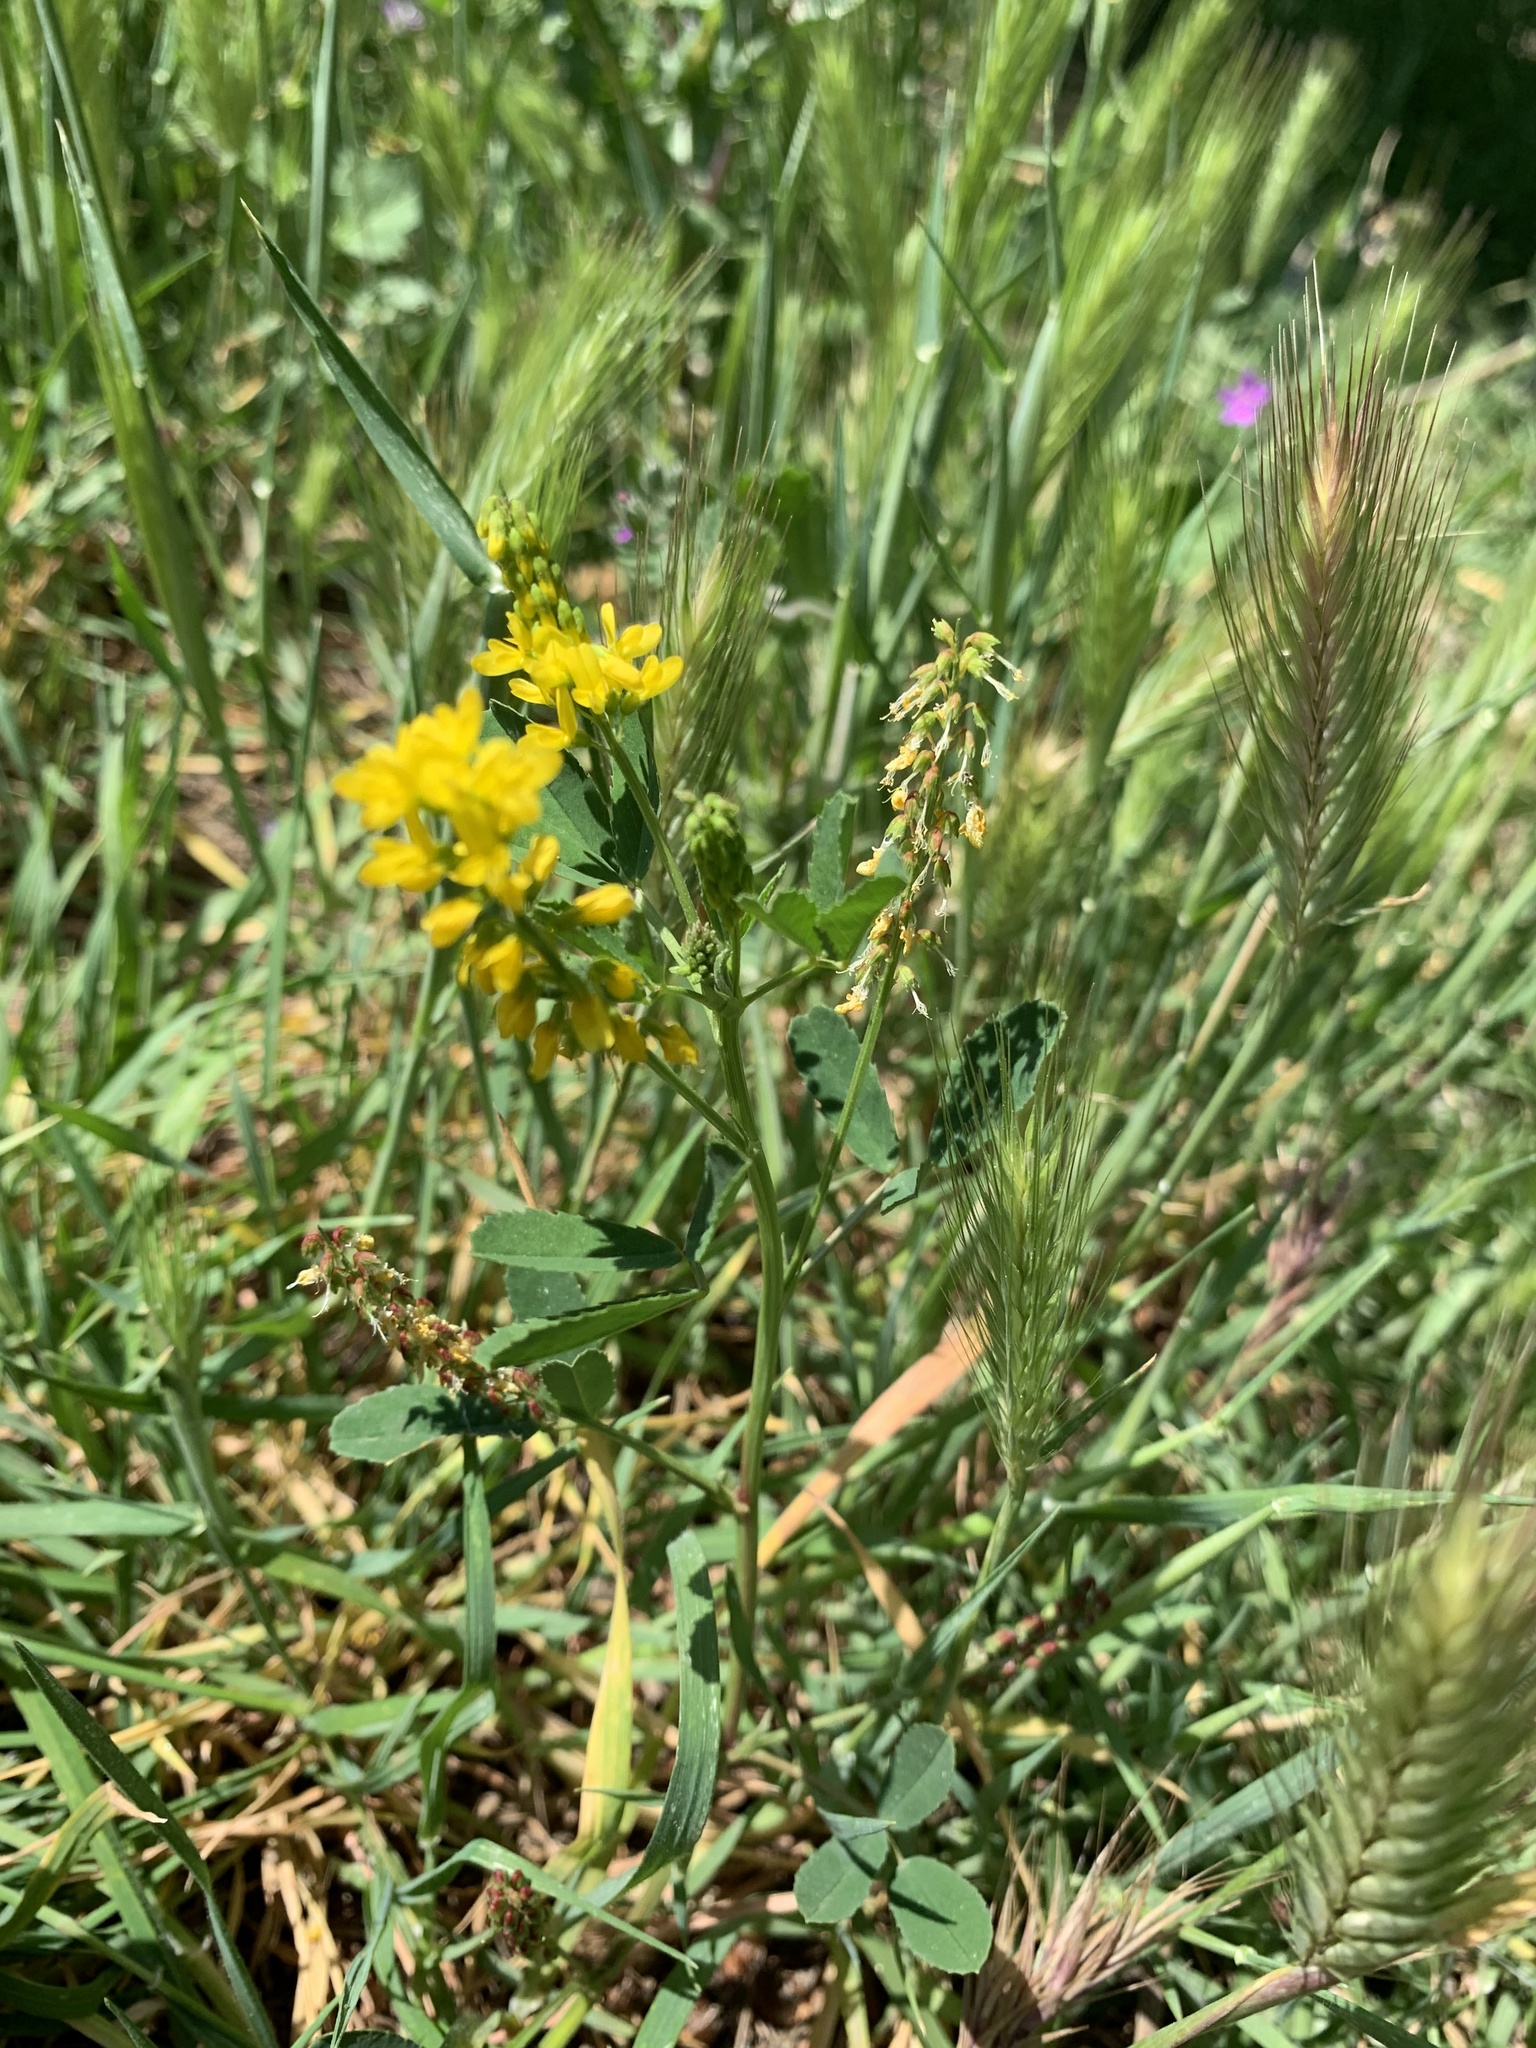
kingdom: Plantae
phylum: Tracheophyta
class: Magnoliopsida
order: Fabales
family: Fabaceae
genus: Melilotus
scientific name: Melilotus indicus
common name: Small melilot
